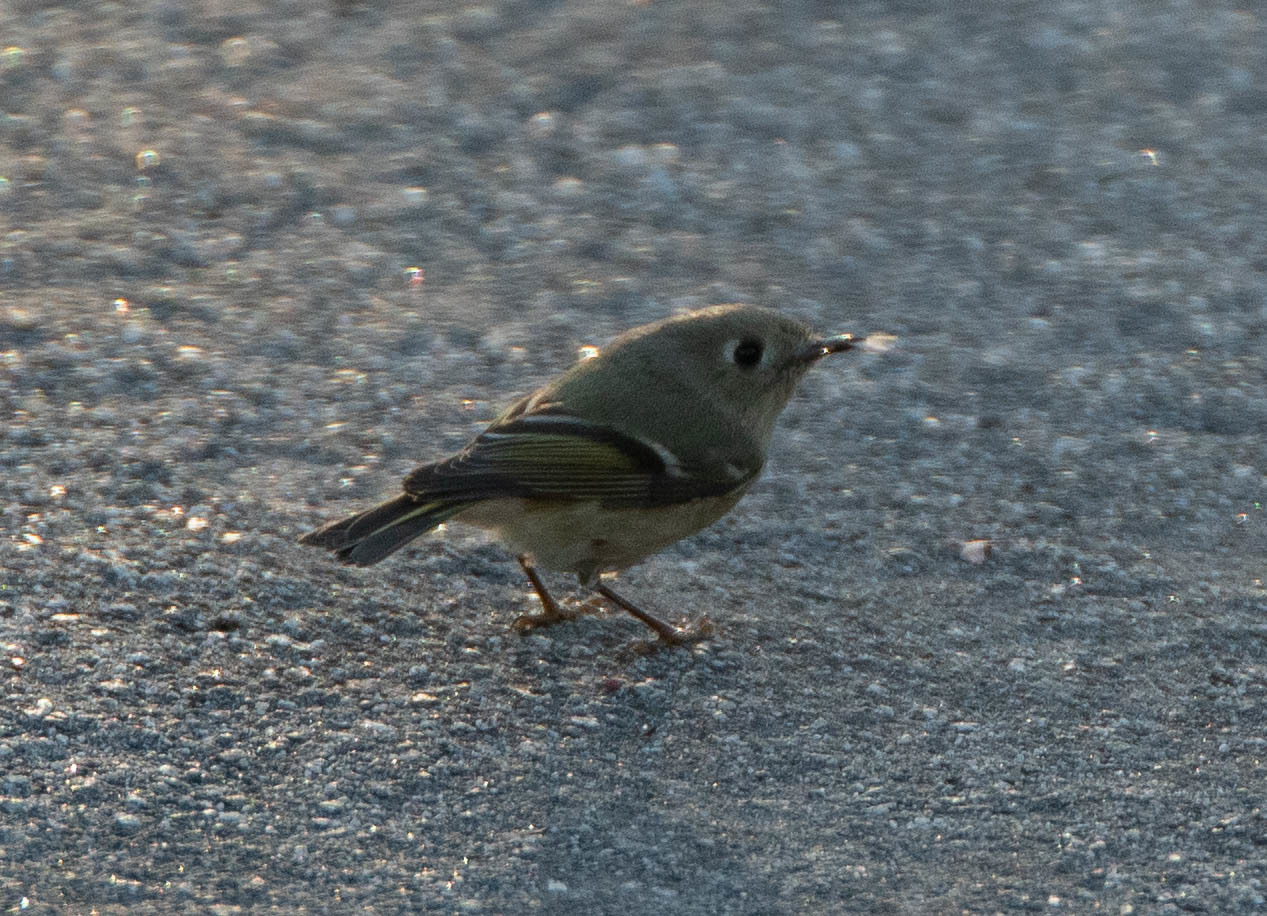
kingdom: Animalia
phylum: Chordata
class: Aves
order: Passeriformes
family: Regulidae
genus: Regulus
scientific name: Regulus calendula
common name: Ruby-crowned kinglet
